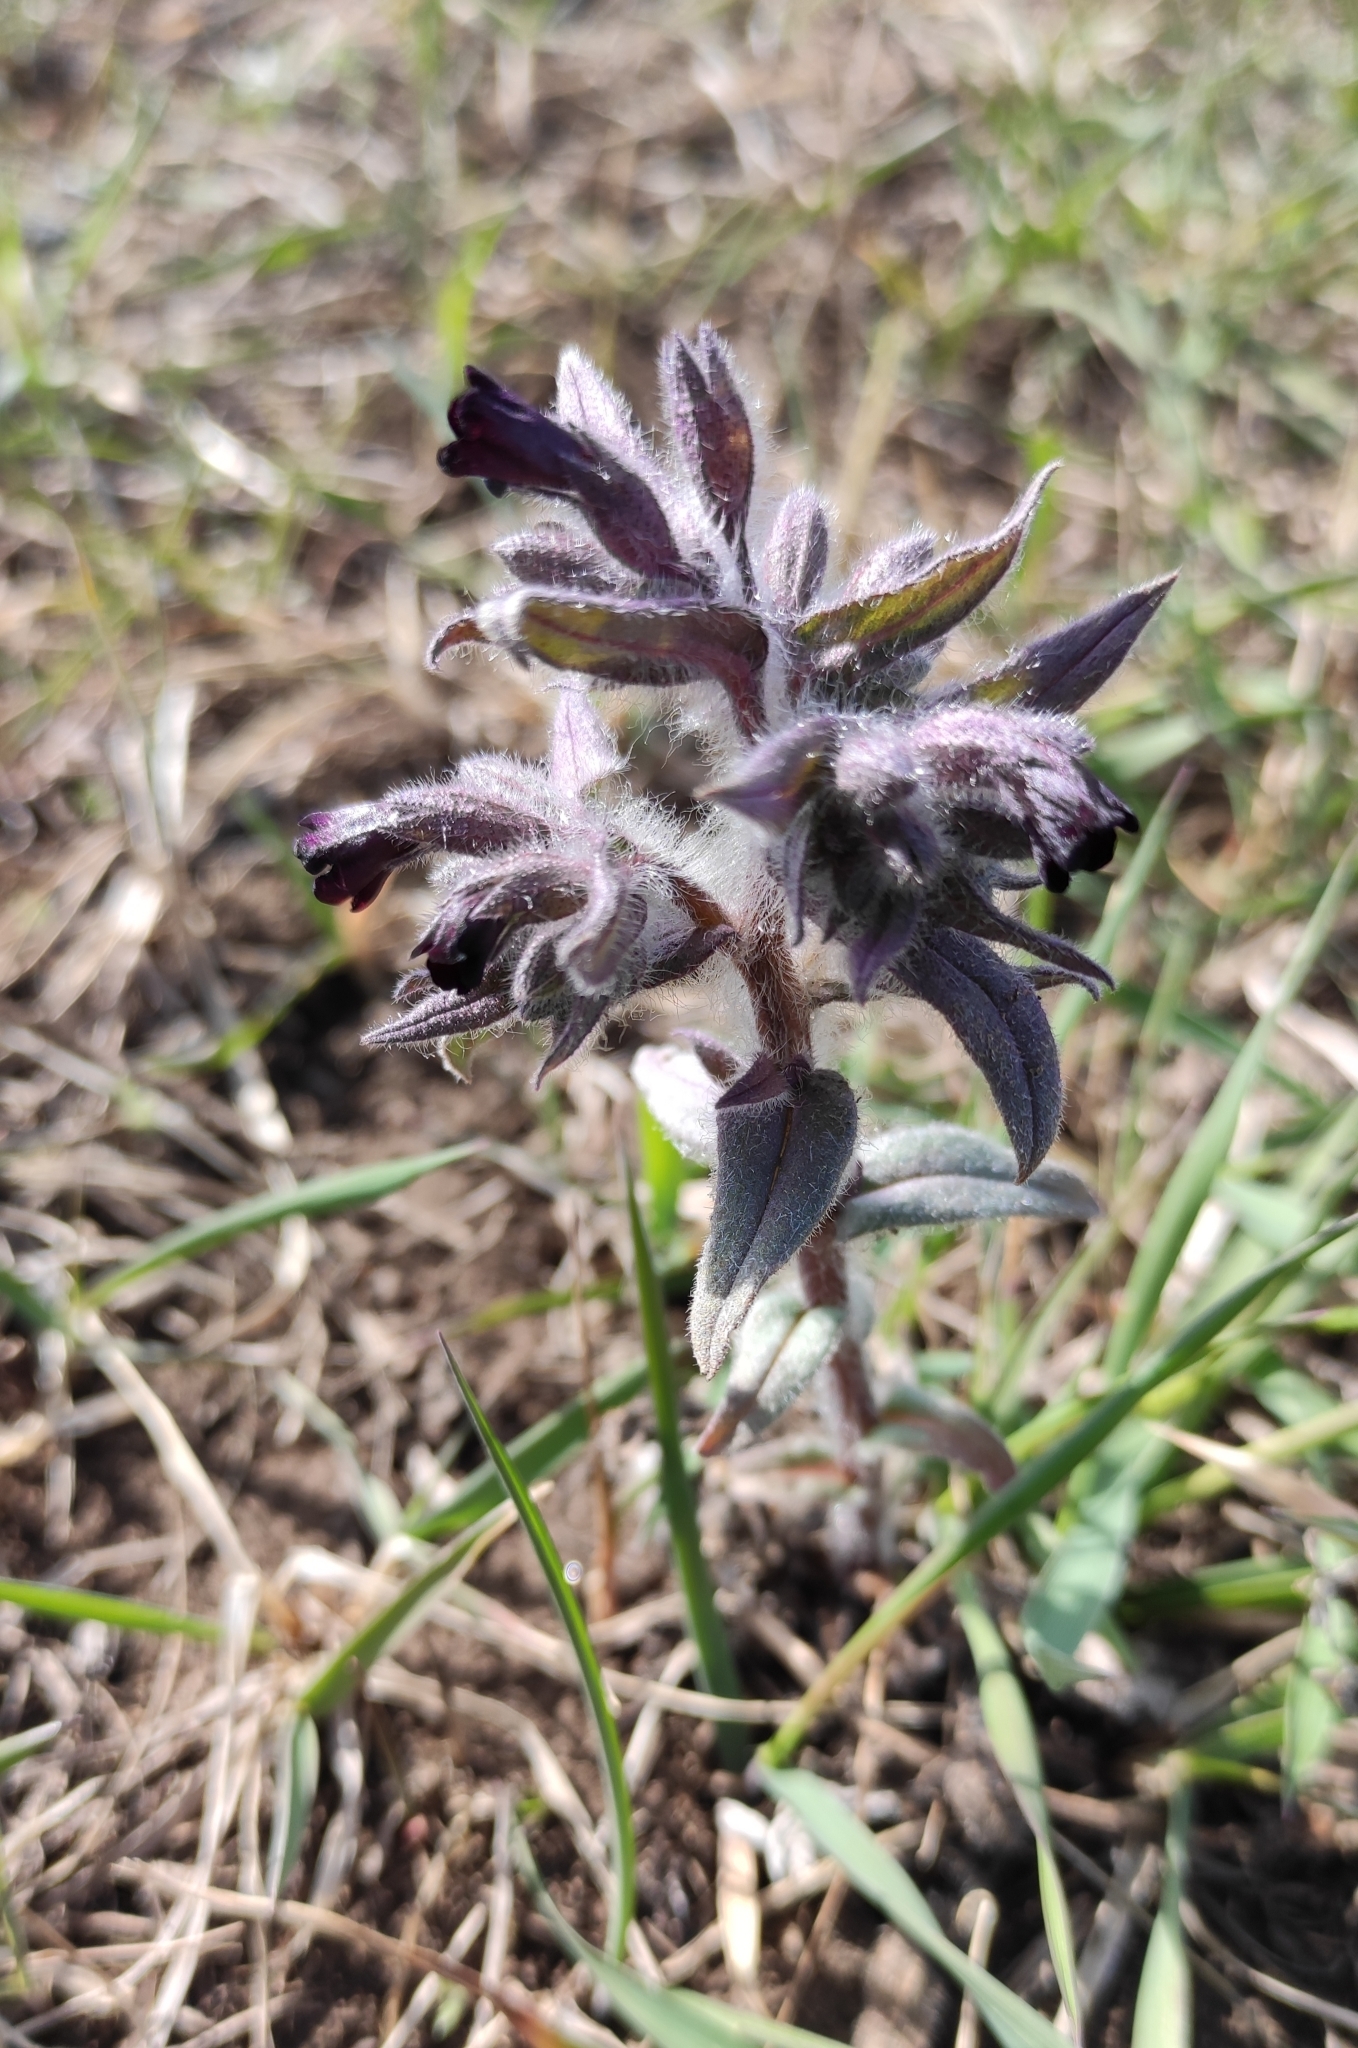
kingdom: Plantae
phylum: Tracheophyta
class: Magnoliopsida
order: Boraginales
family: Boraginaceae
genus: Nonea
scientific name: Nonea pulla
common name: Brown nonea
